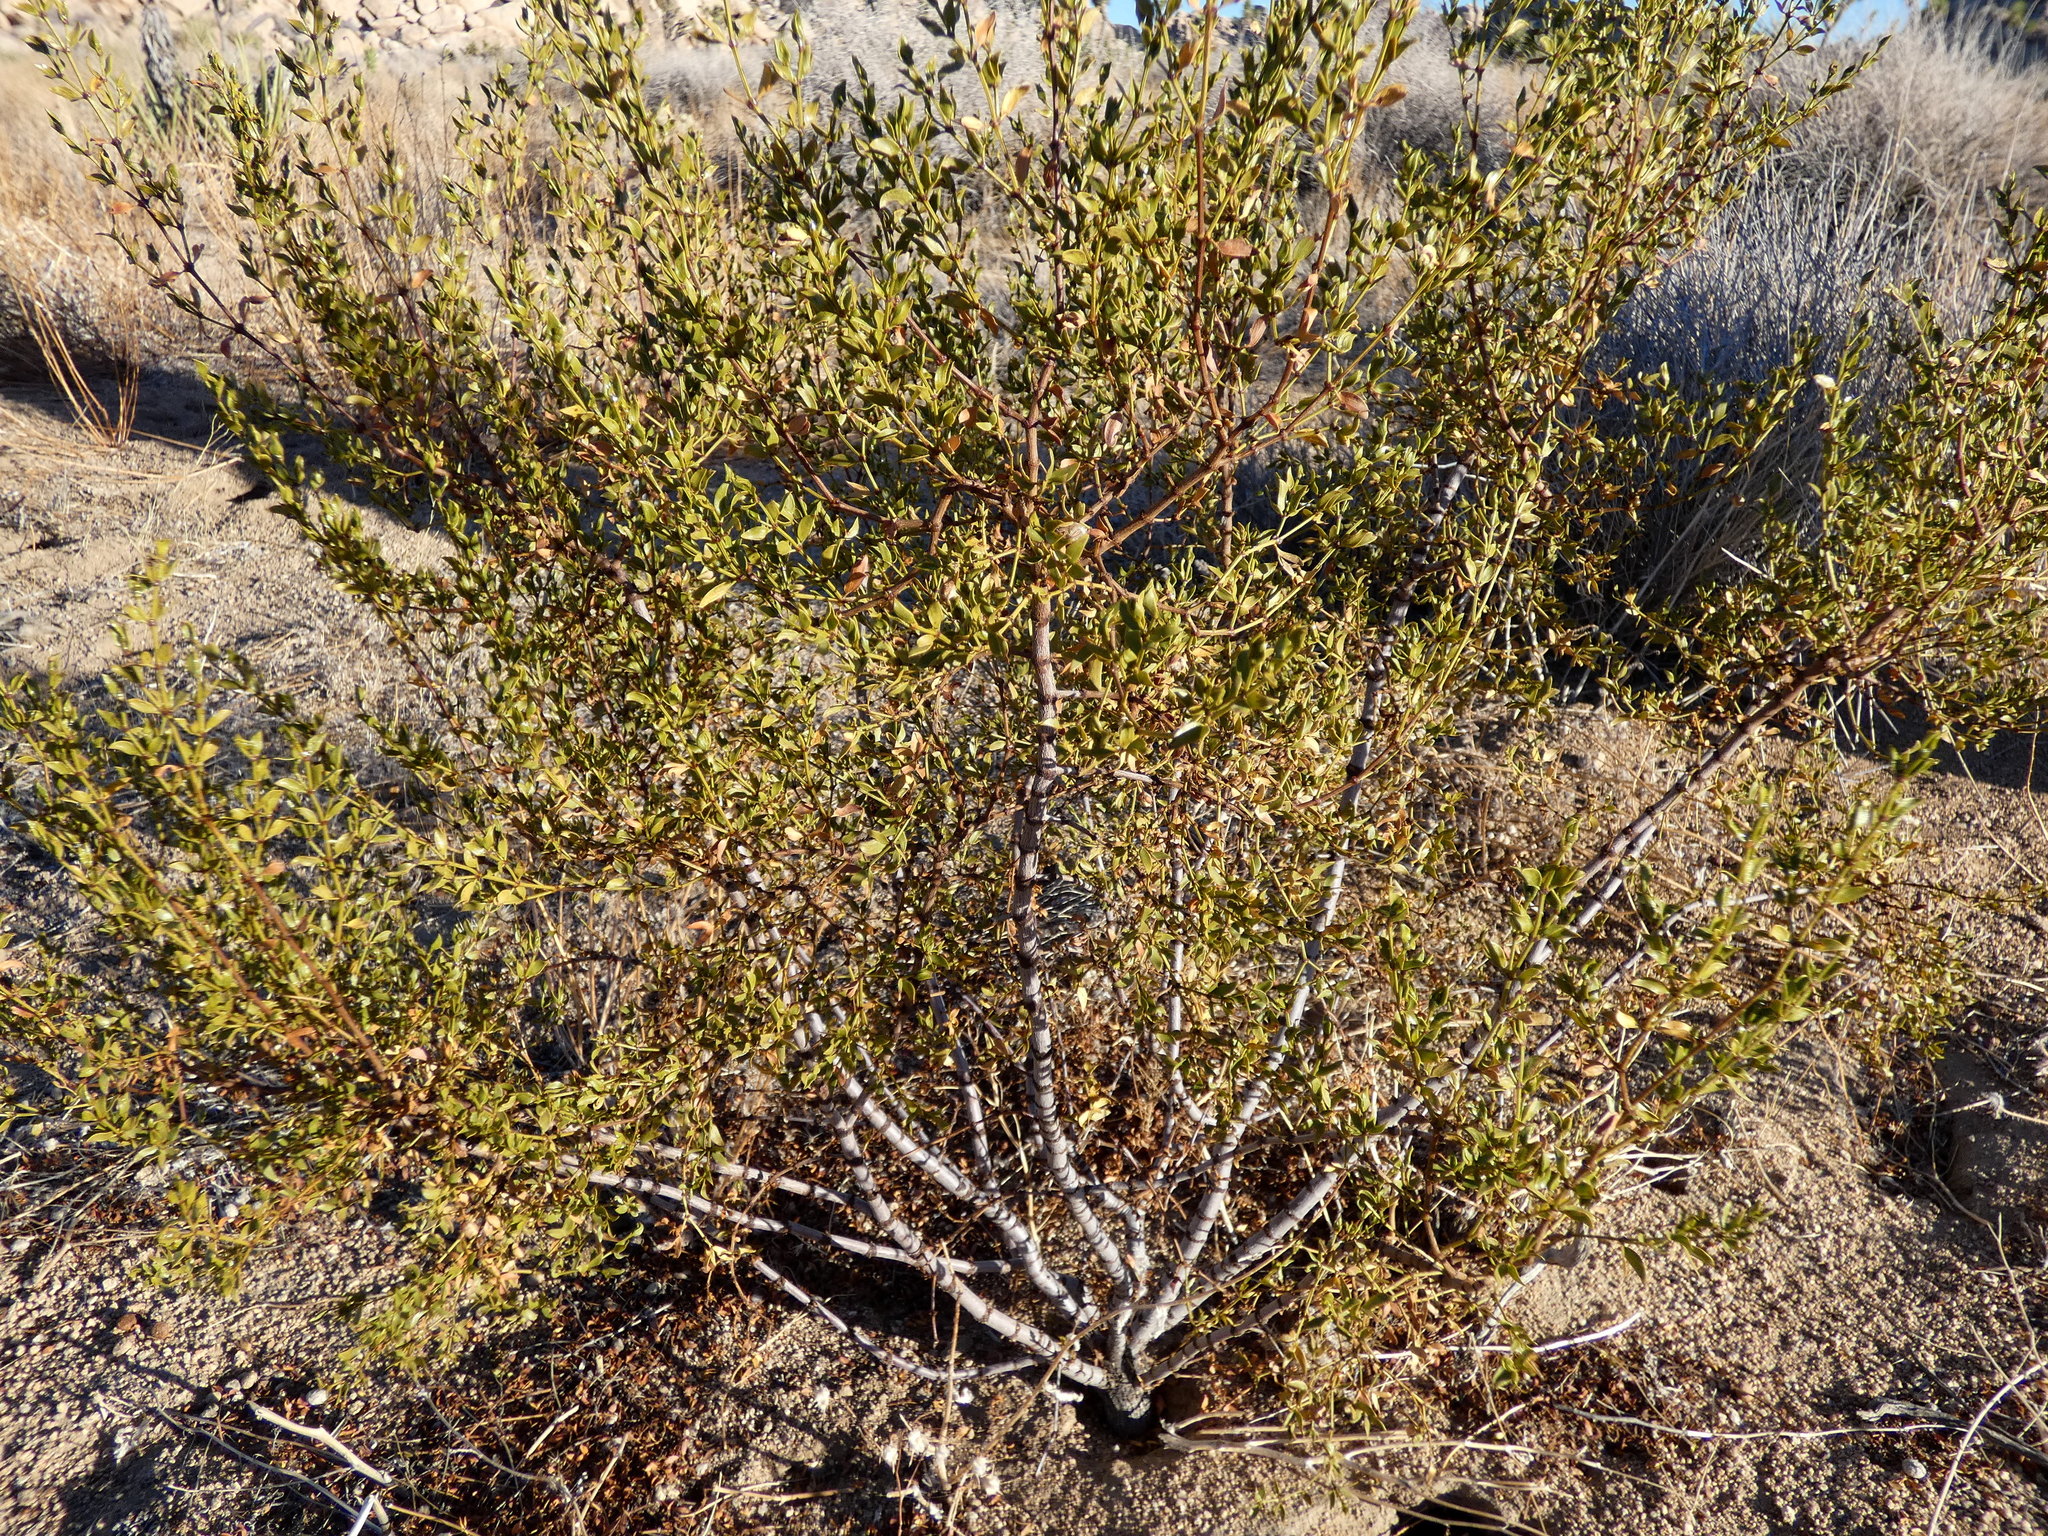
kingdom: Plantae
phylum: Tracheophyta
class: Magnoliopsida
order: Zygophyllales
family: Zygophyllaceae
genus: Larrea
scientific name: Larrea tridentata
